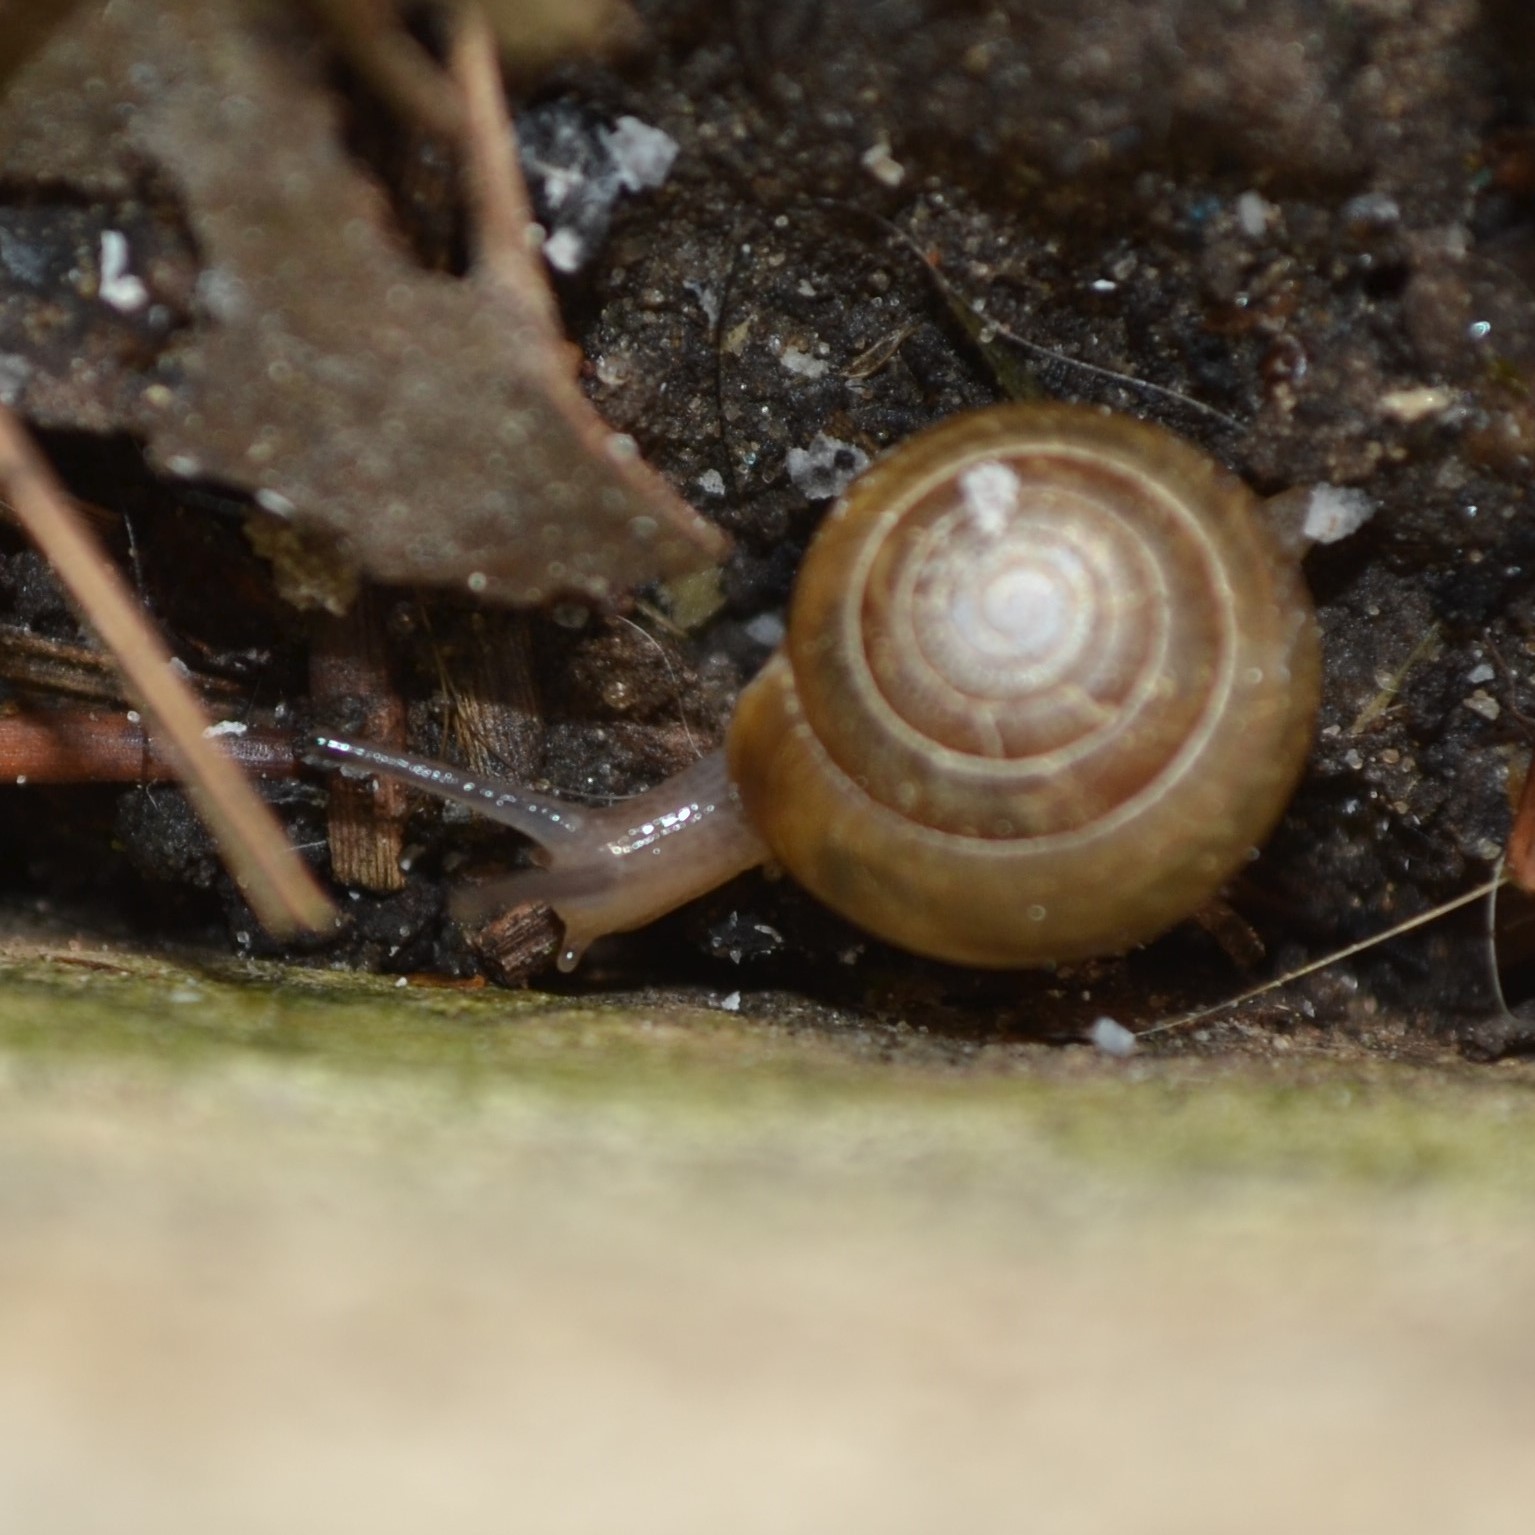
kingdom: Animalia
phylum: Mollusca
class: Gastropoda
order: Stylommatophora
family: Camaenidae
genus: Bradybaena
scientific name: Bradybaena similaris
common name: Asian trampsnail
